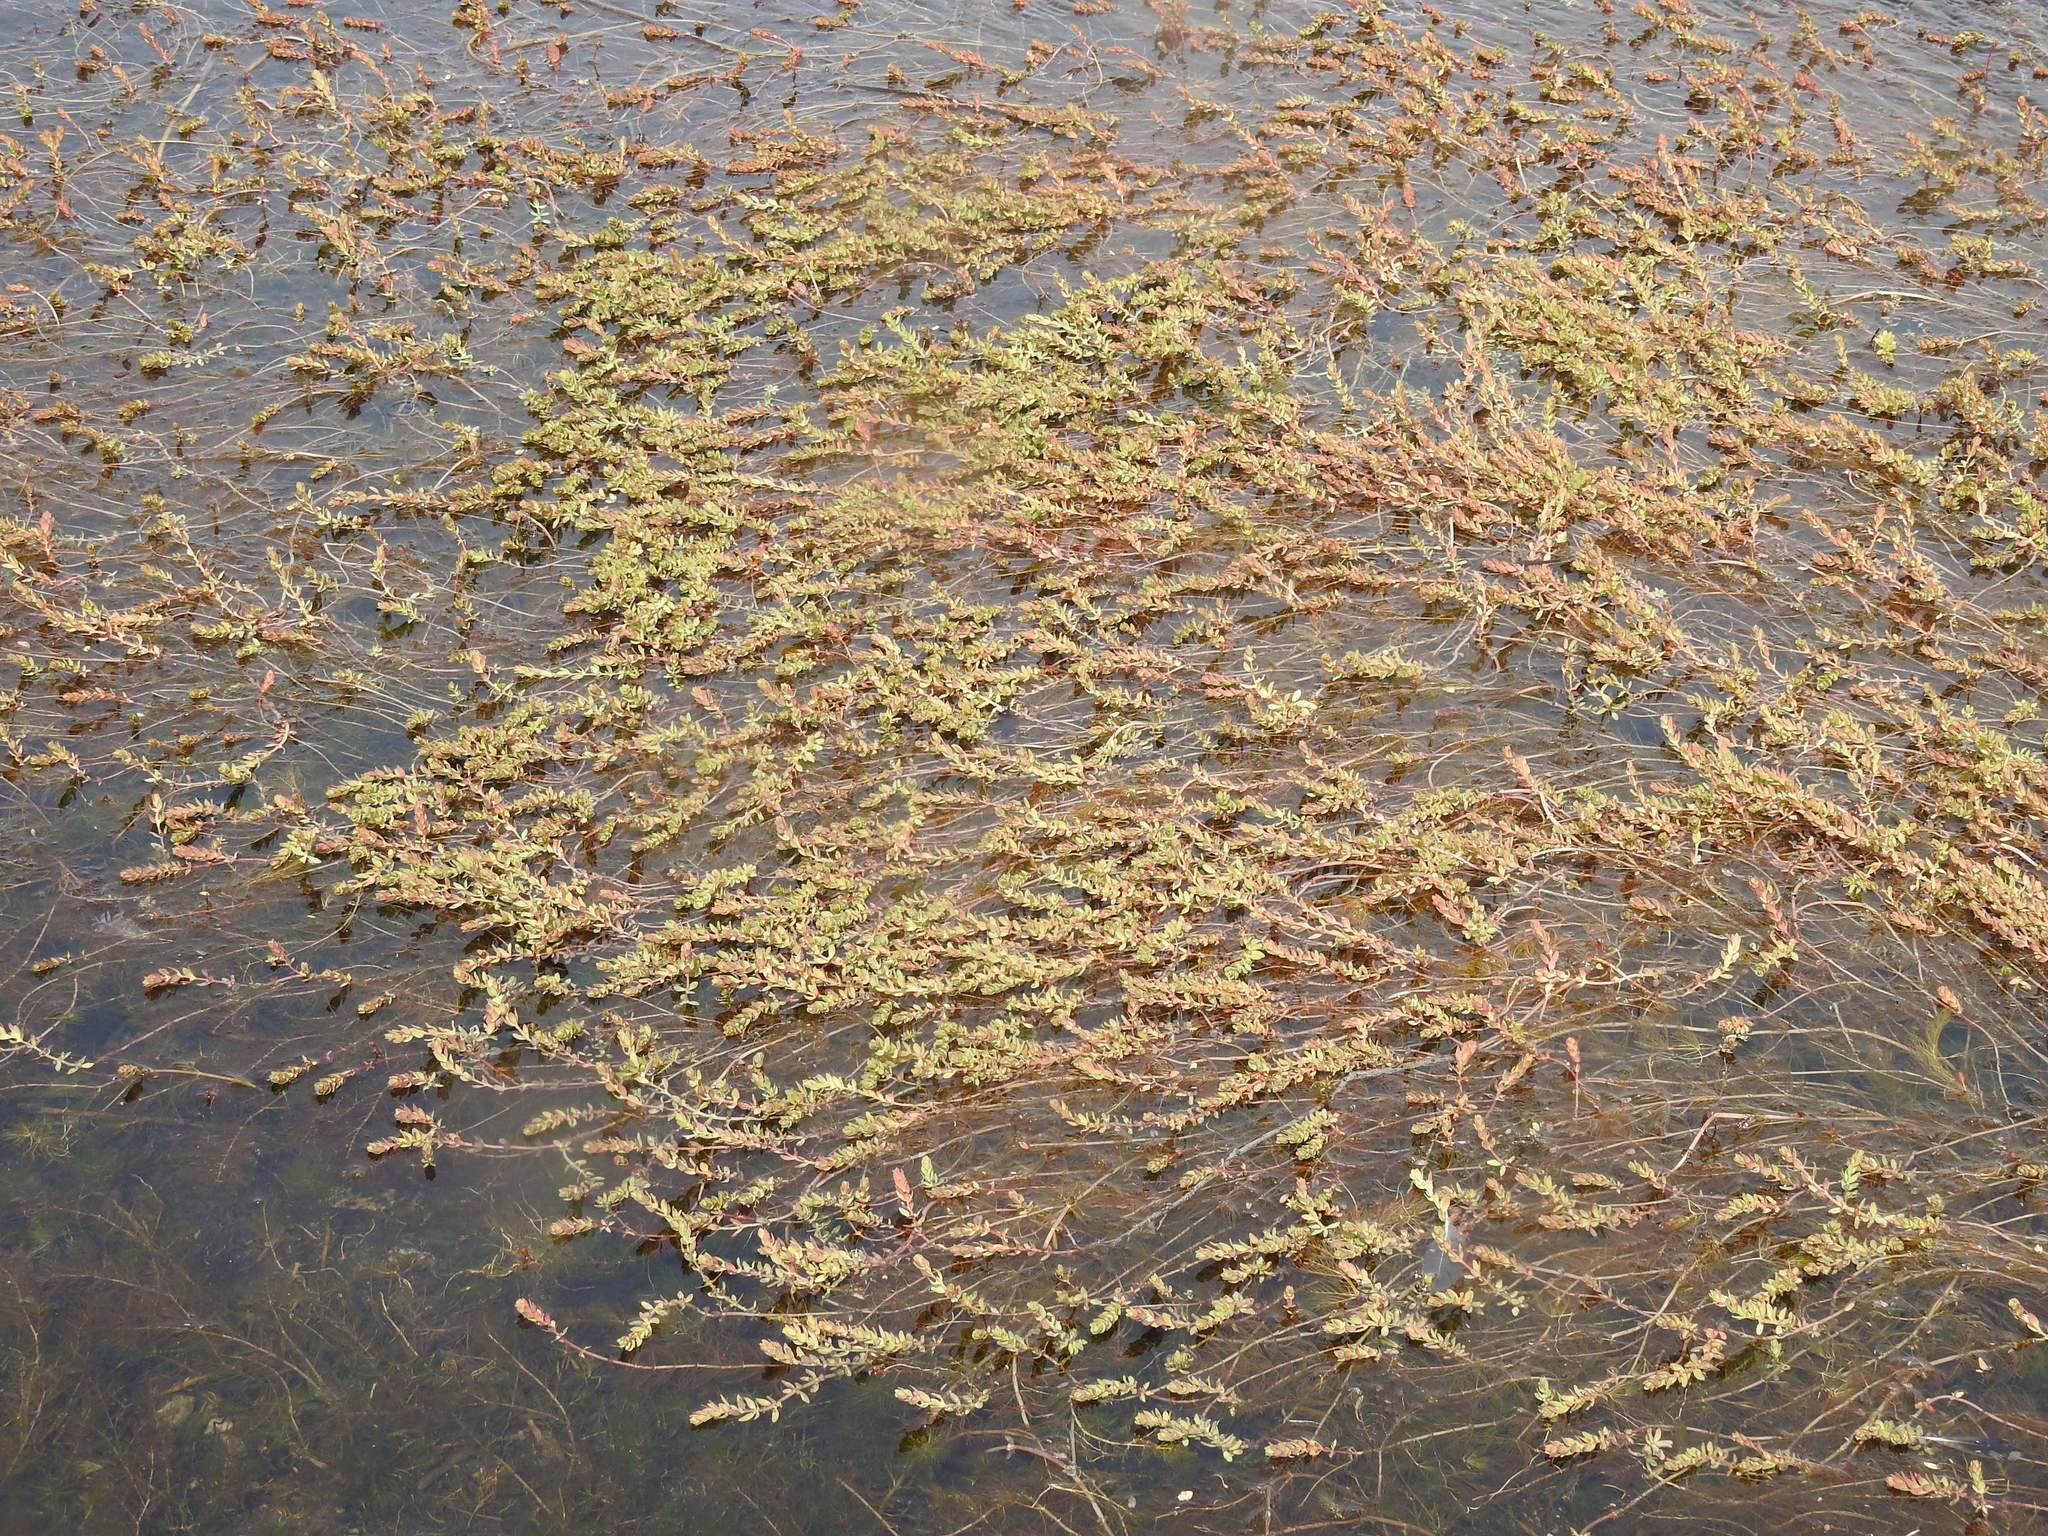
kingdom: Plantae
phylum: Tracheophyta
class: Magnoliopsida
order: Saxifragales
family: Haloragaceae
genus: Myriophyllum
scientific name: Myriophyllum quitense
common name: Andean water milfoil
